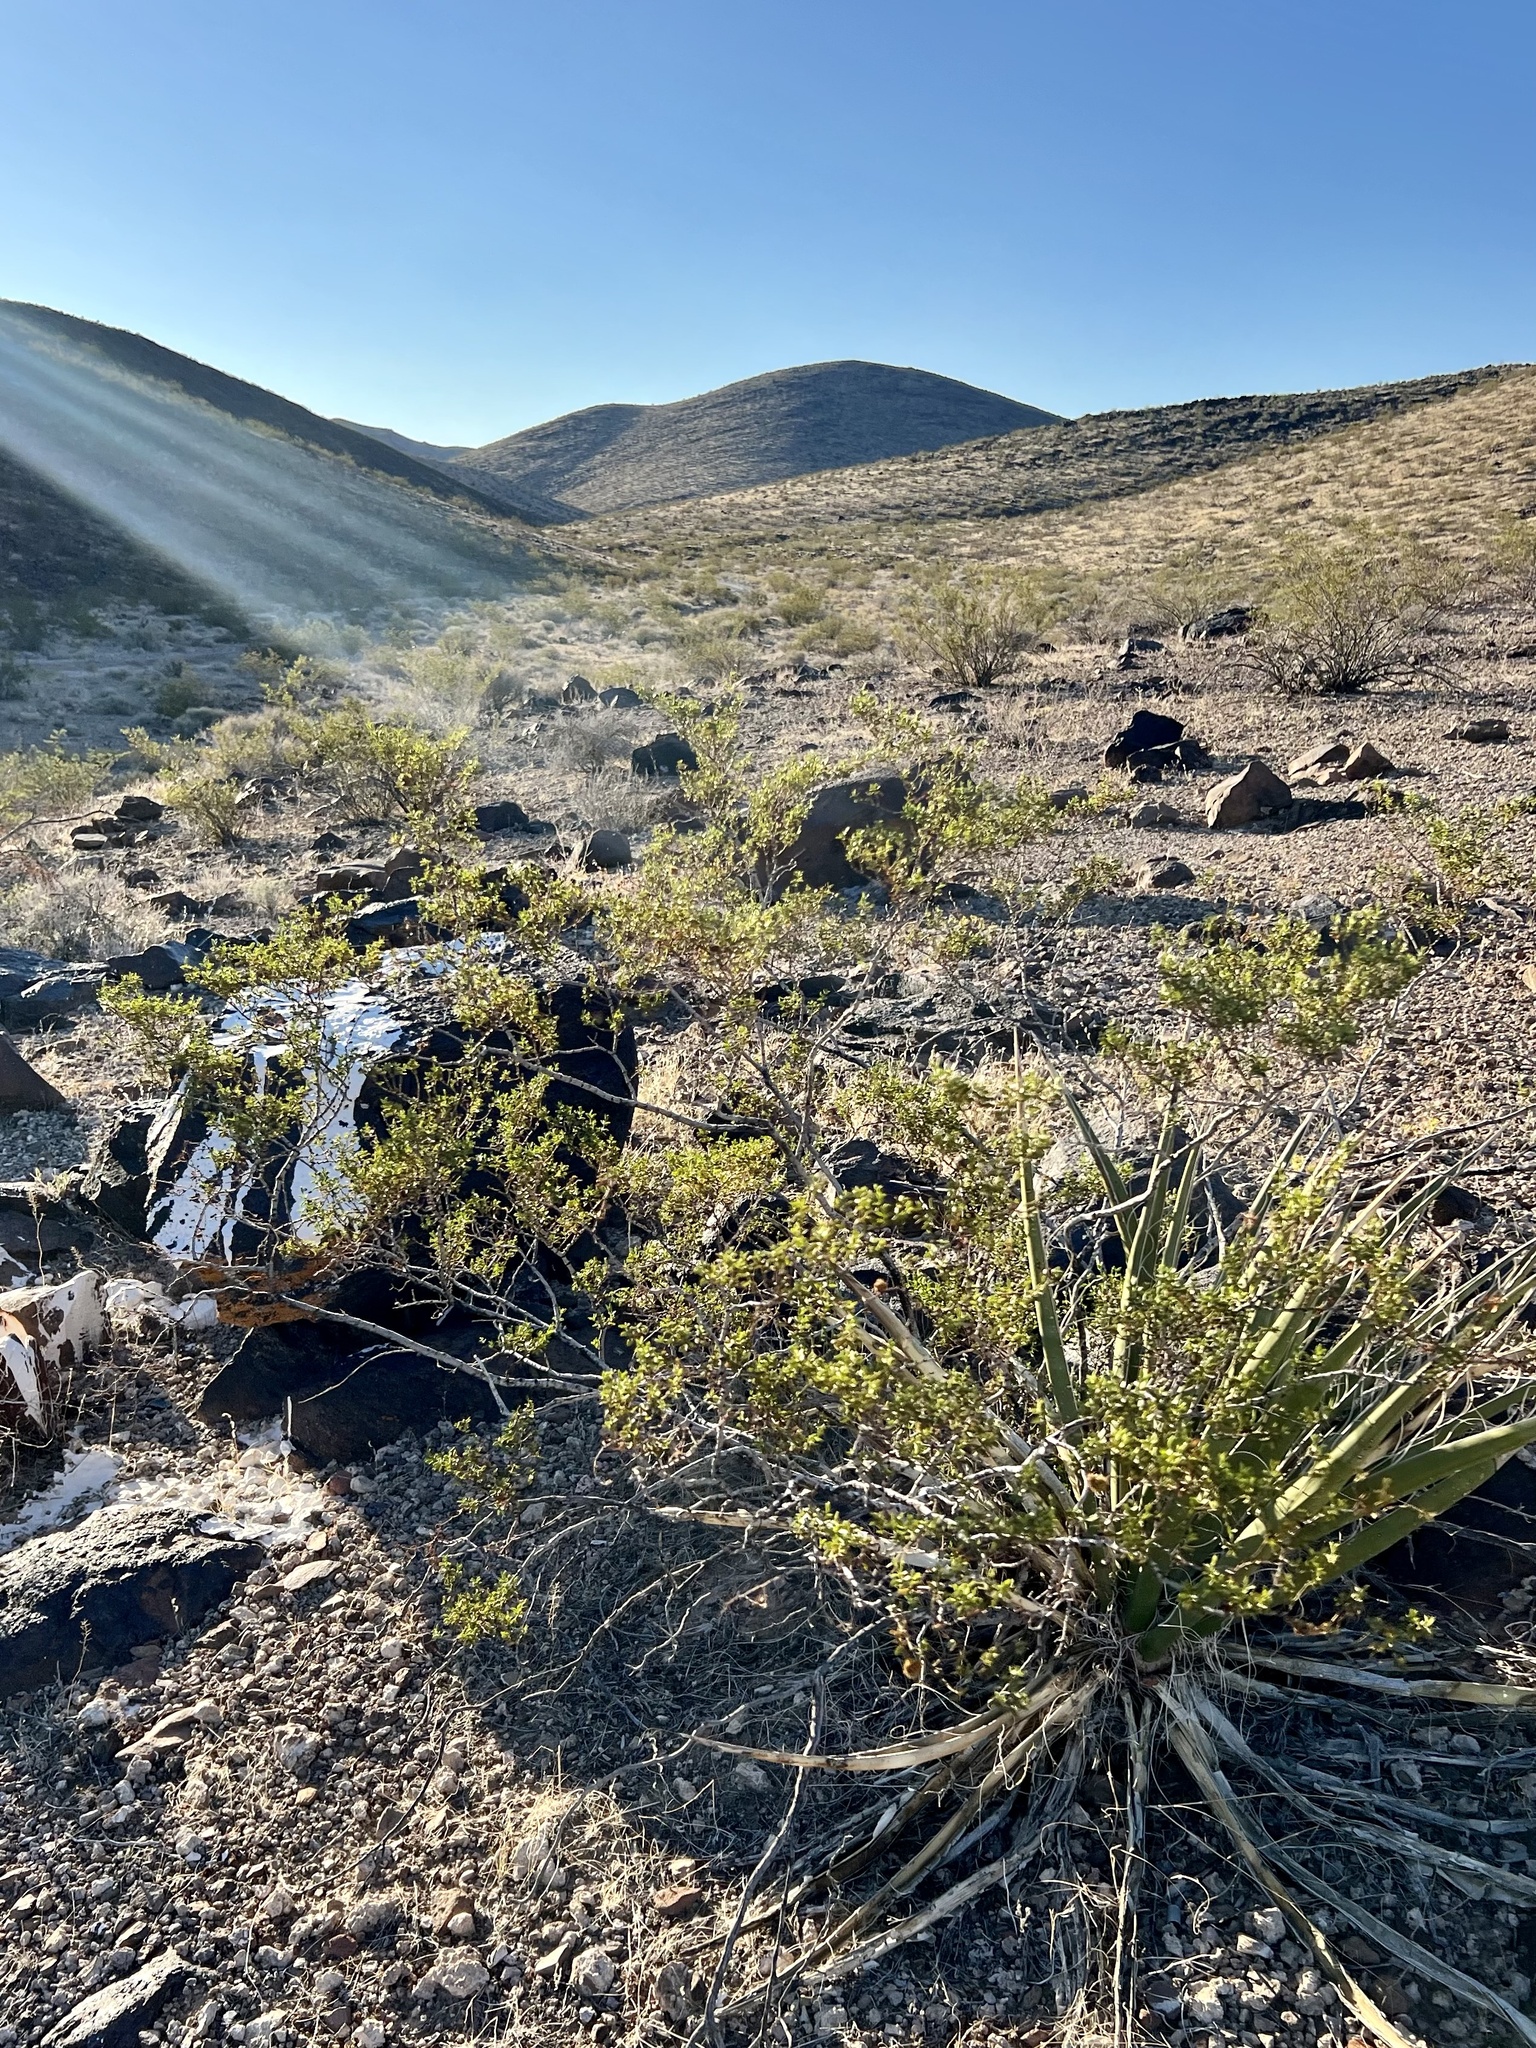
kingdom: Plantae
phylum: Tracheophyta
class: Magnoliopsida
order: Zygophyllales
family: Zygophyllaceae
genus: Larrea
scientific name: Larrea tridentata
